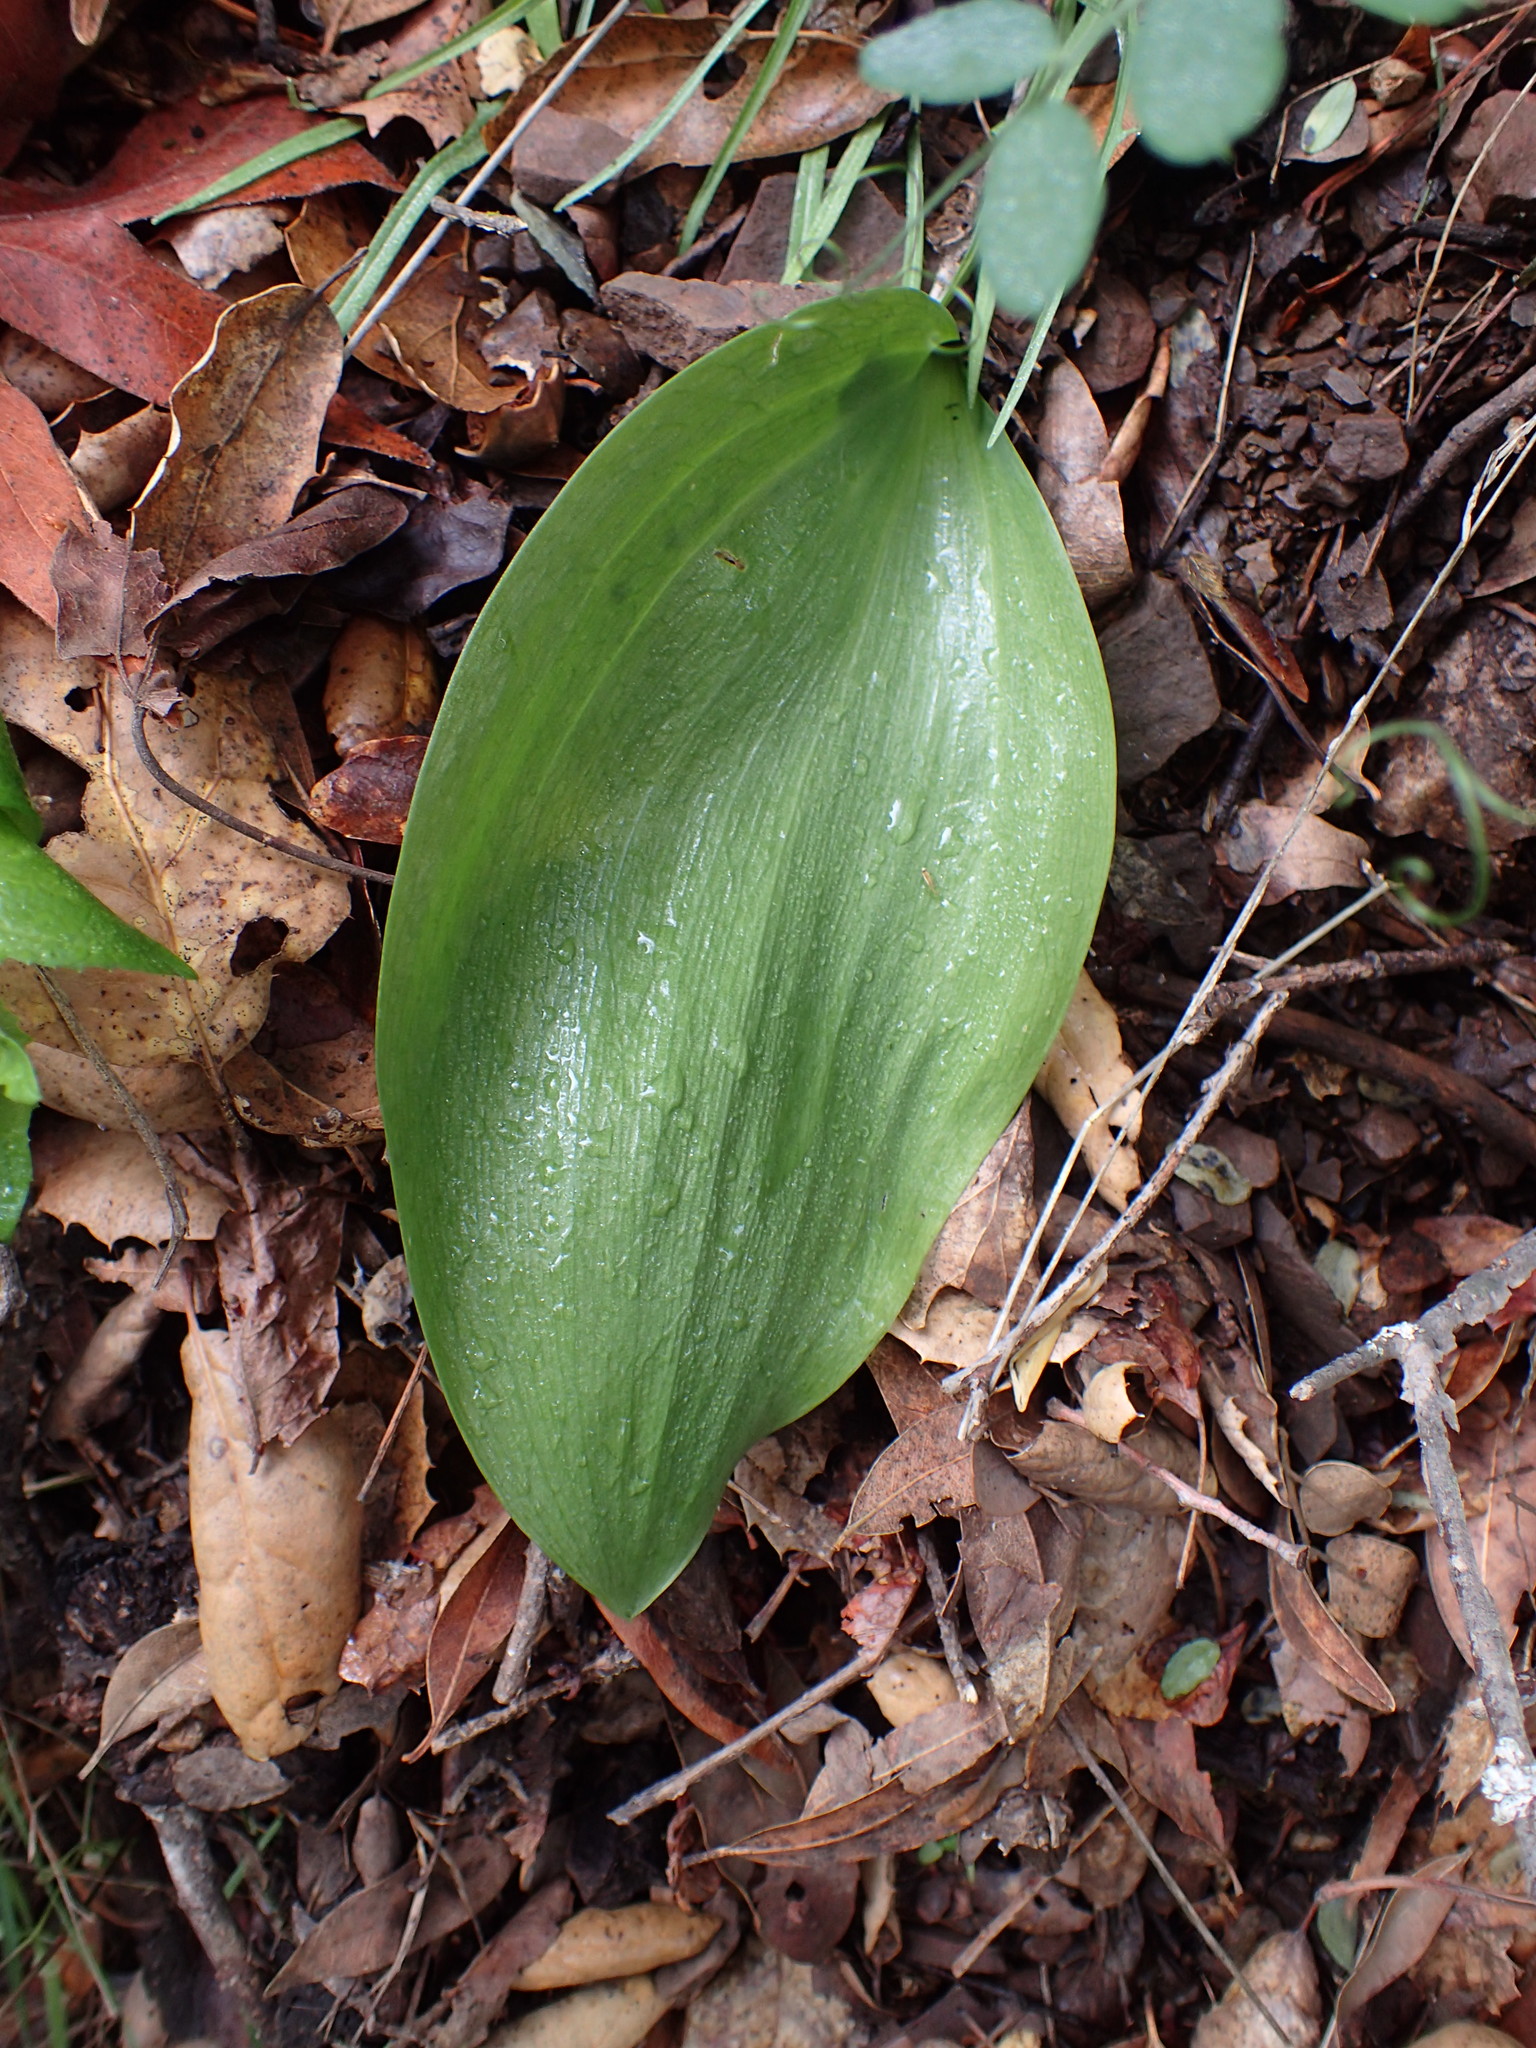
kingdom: Plantae
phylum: Tracheophyta
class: Liliopsida
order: Liliales
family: Liliaceae
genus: Fritillaria
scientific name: Fritillaria ojaiensis
